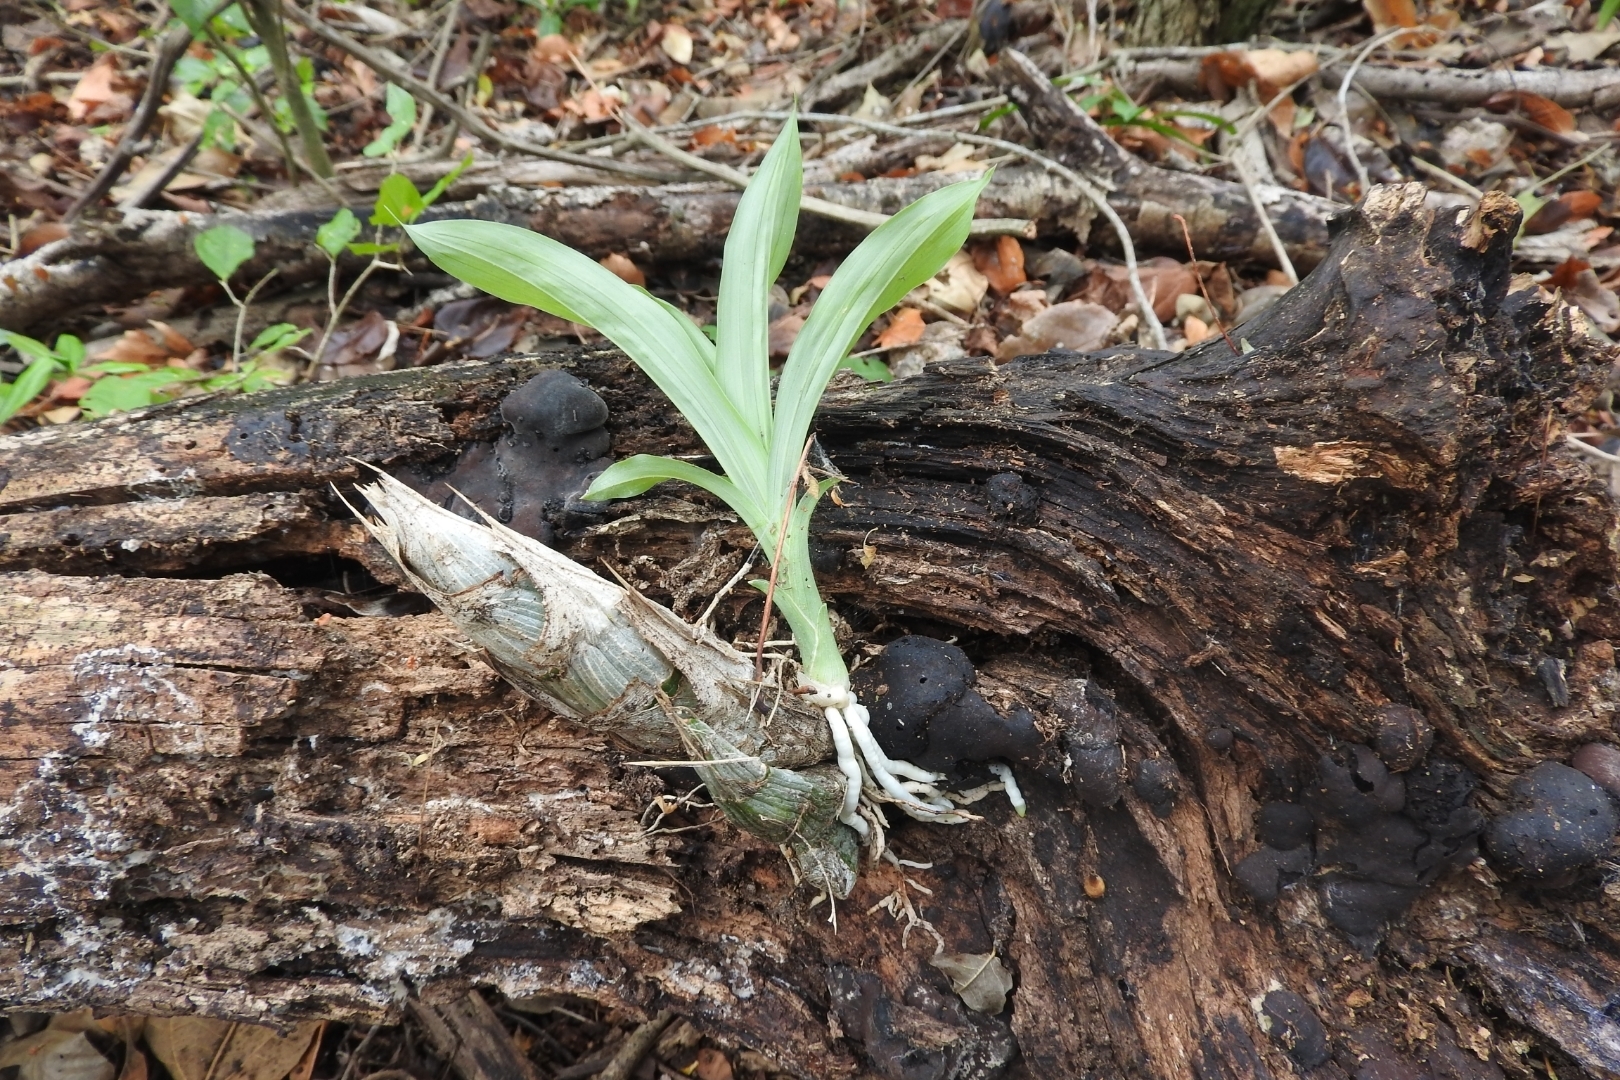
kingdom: Plantae
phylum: Tracheophyta
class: Liliopsida
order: Asparagales
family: Orchidaceae
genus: Catasetum
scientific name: Catasetum integerrimum
